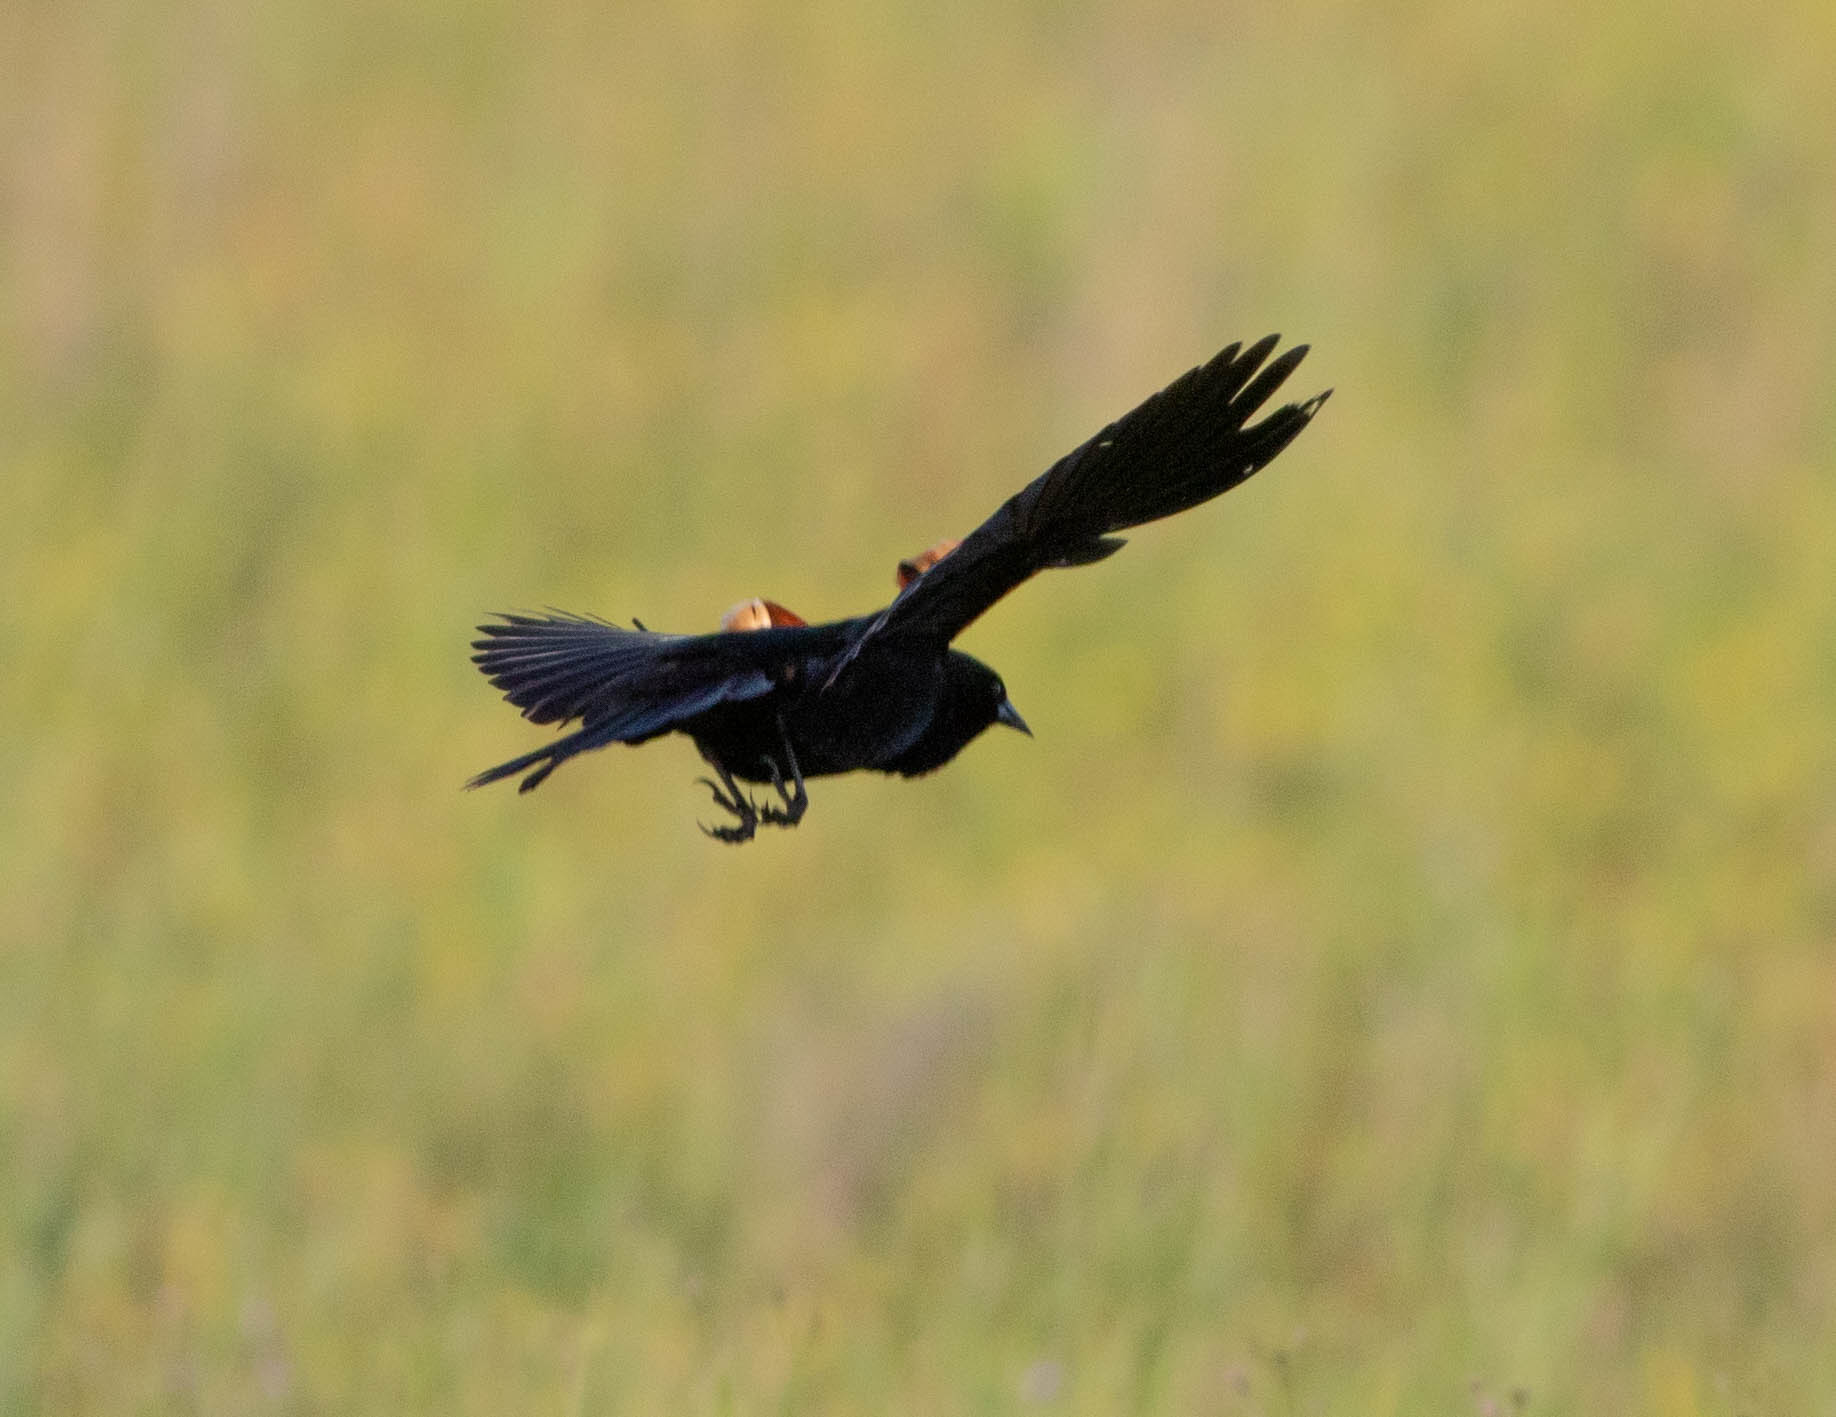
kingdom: Animalia
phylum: Chordata
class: Aves
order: Passeriformes
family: Icteridae
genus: Agelaius
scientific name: Agelaius phoeniceus
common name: Red-winged blackbird
